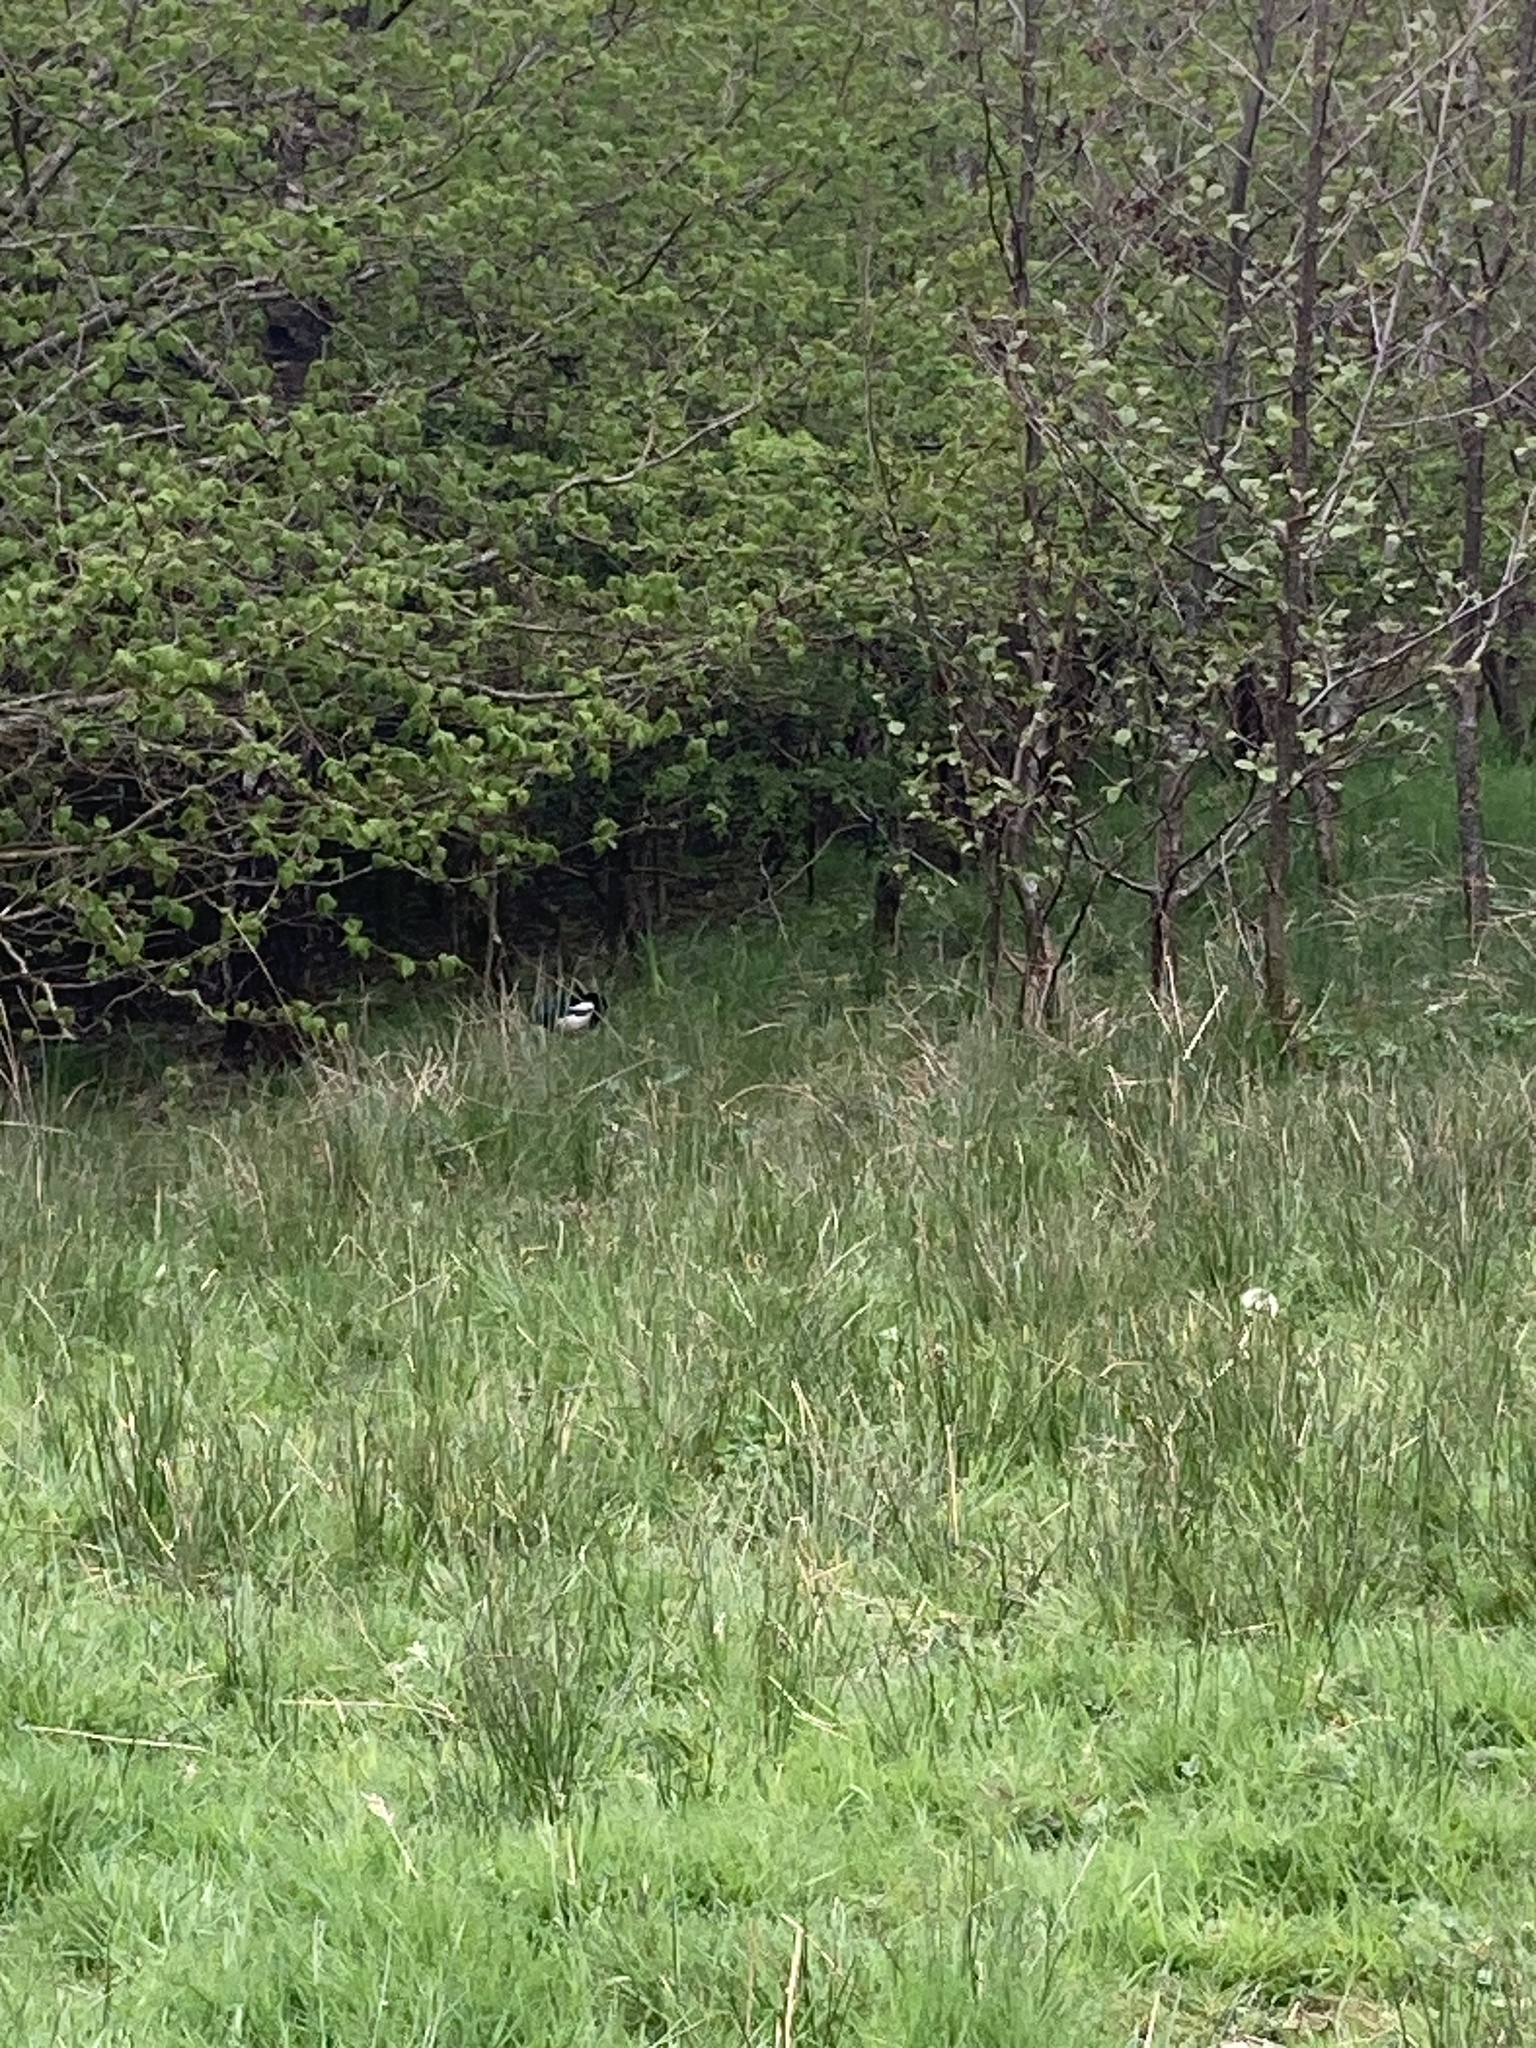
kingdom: Animalia
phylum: Chordata
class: Aves
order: Passeriformes
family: Corvidae
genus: Pica
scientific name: Pica pica
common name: Eurasian magpie
